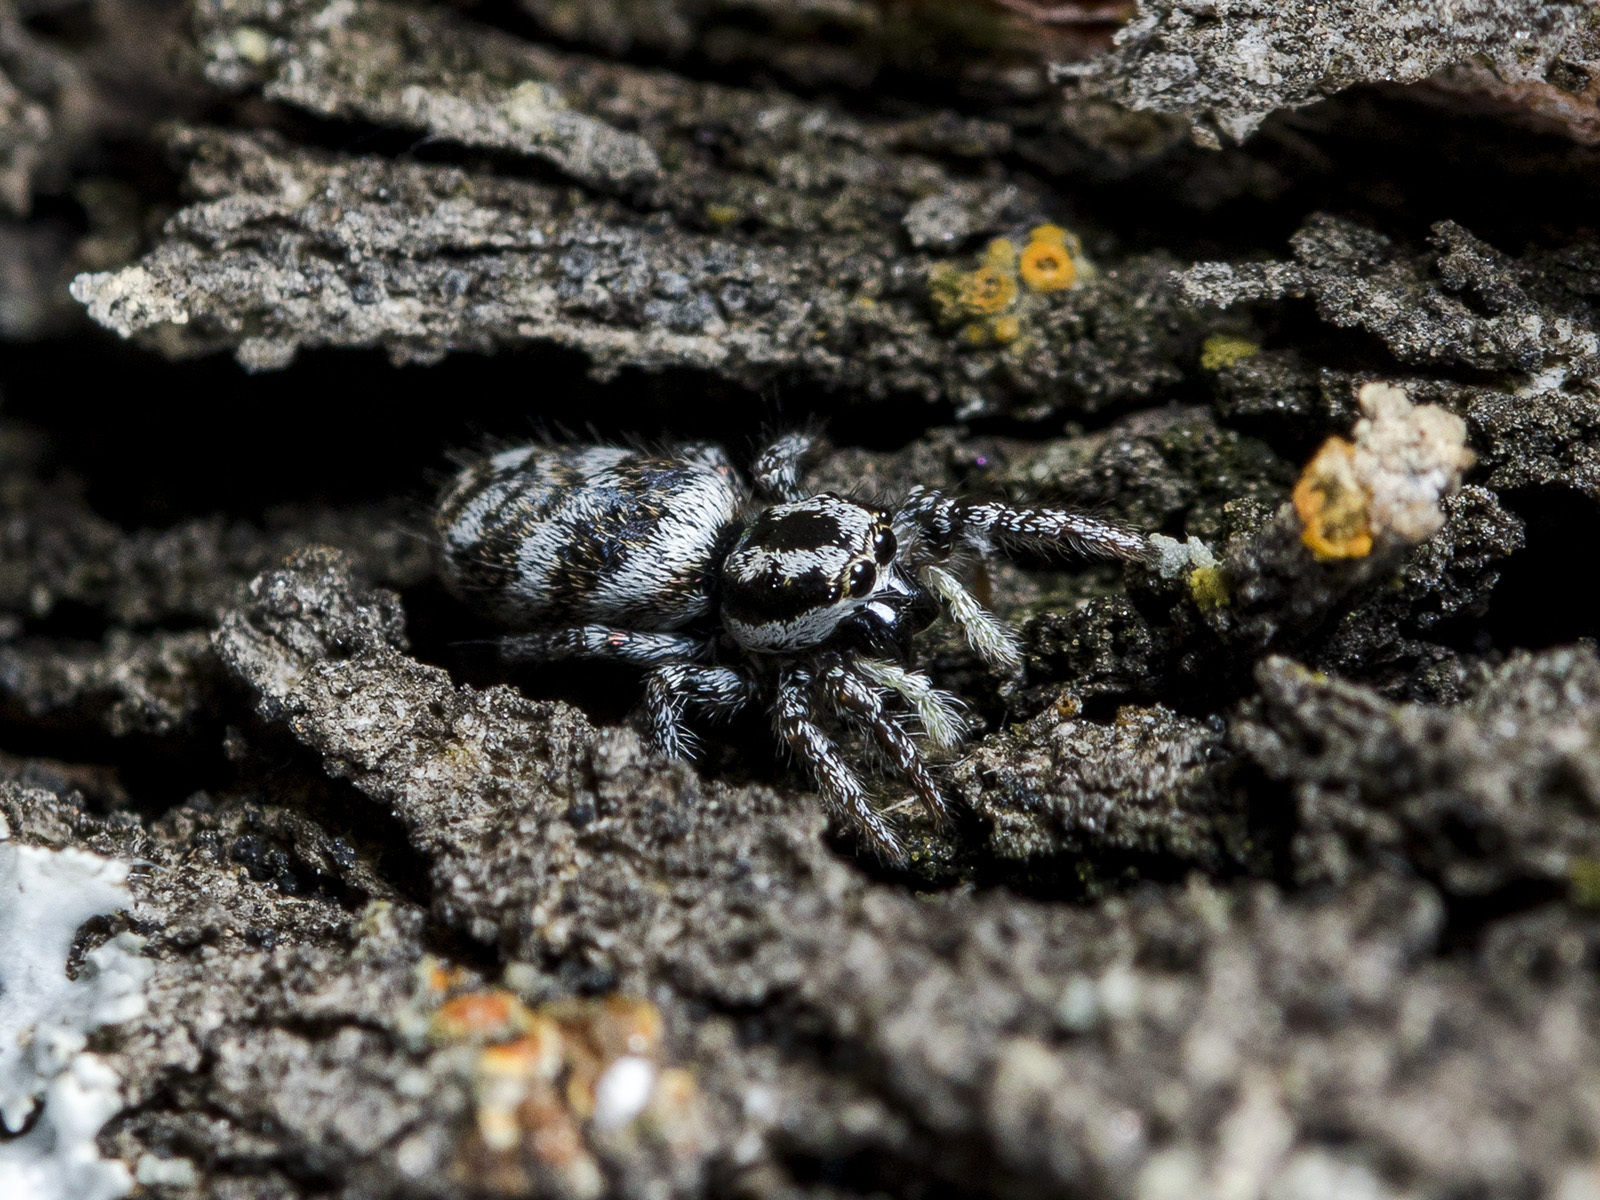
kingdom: Animalia
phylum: Arthropoda
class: Arachnida
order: Araneae
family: Salticidae
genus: Salticus
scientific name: Salticus tricinctus
